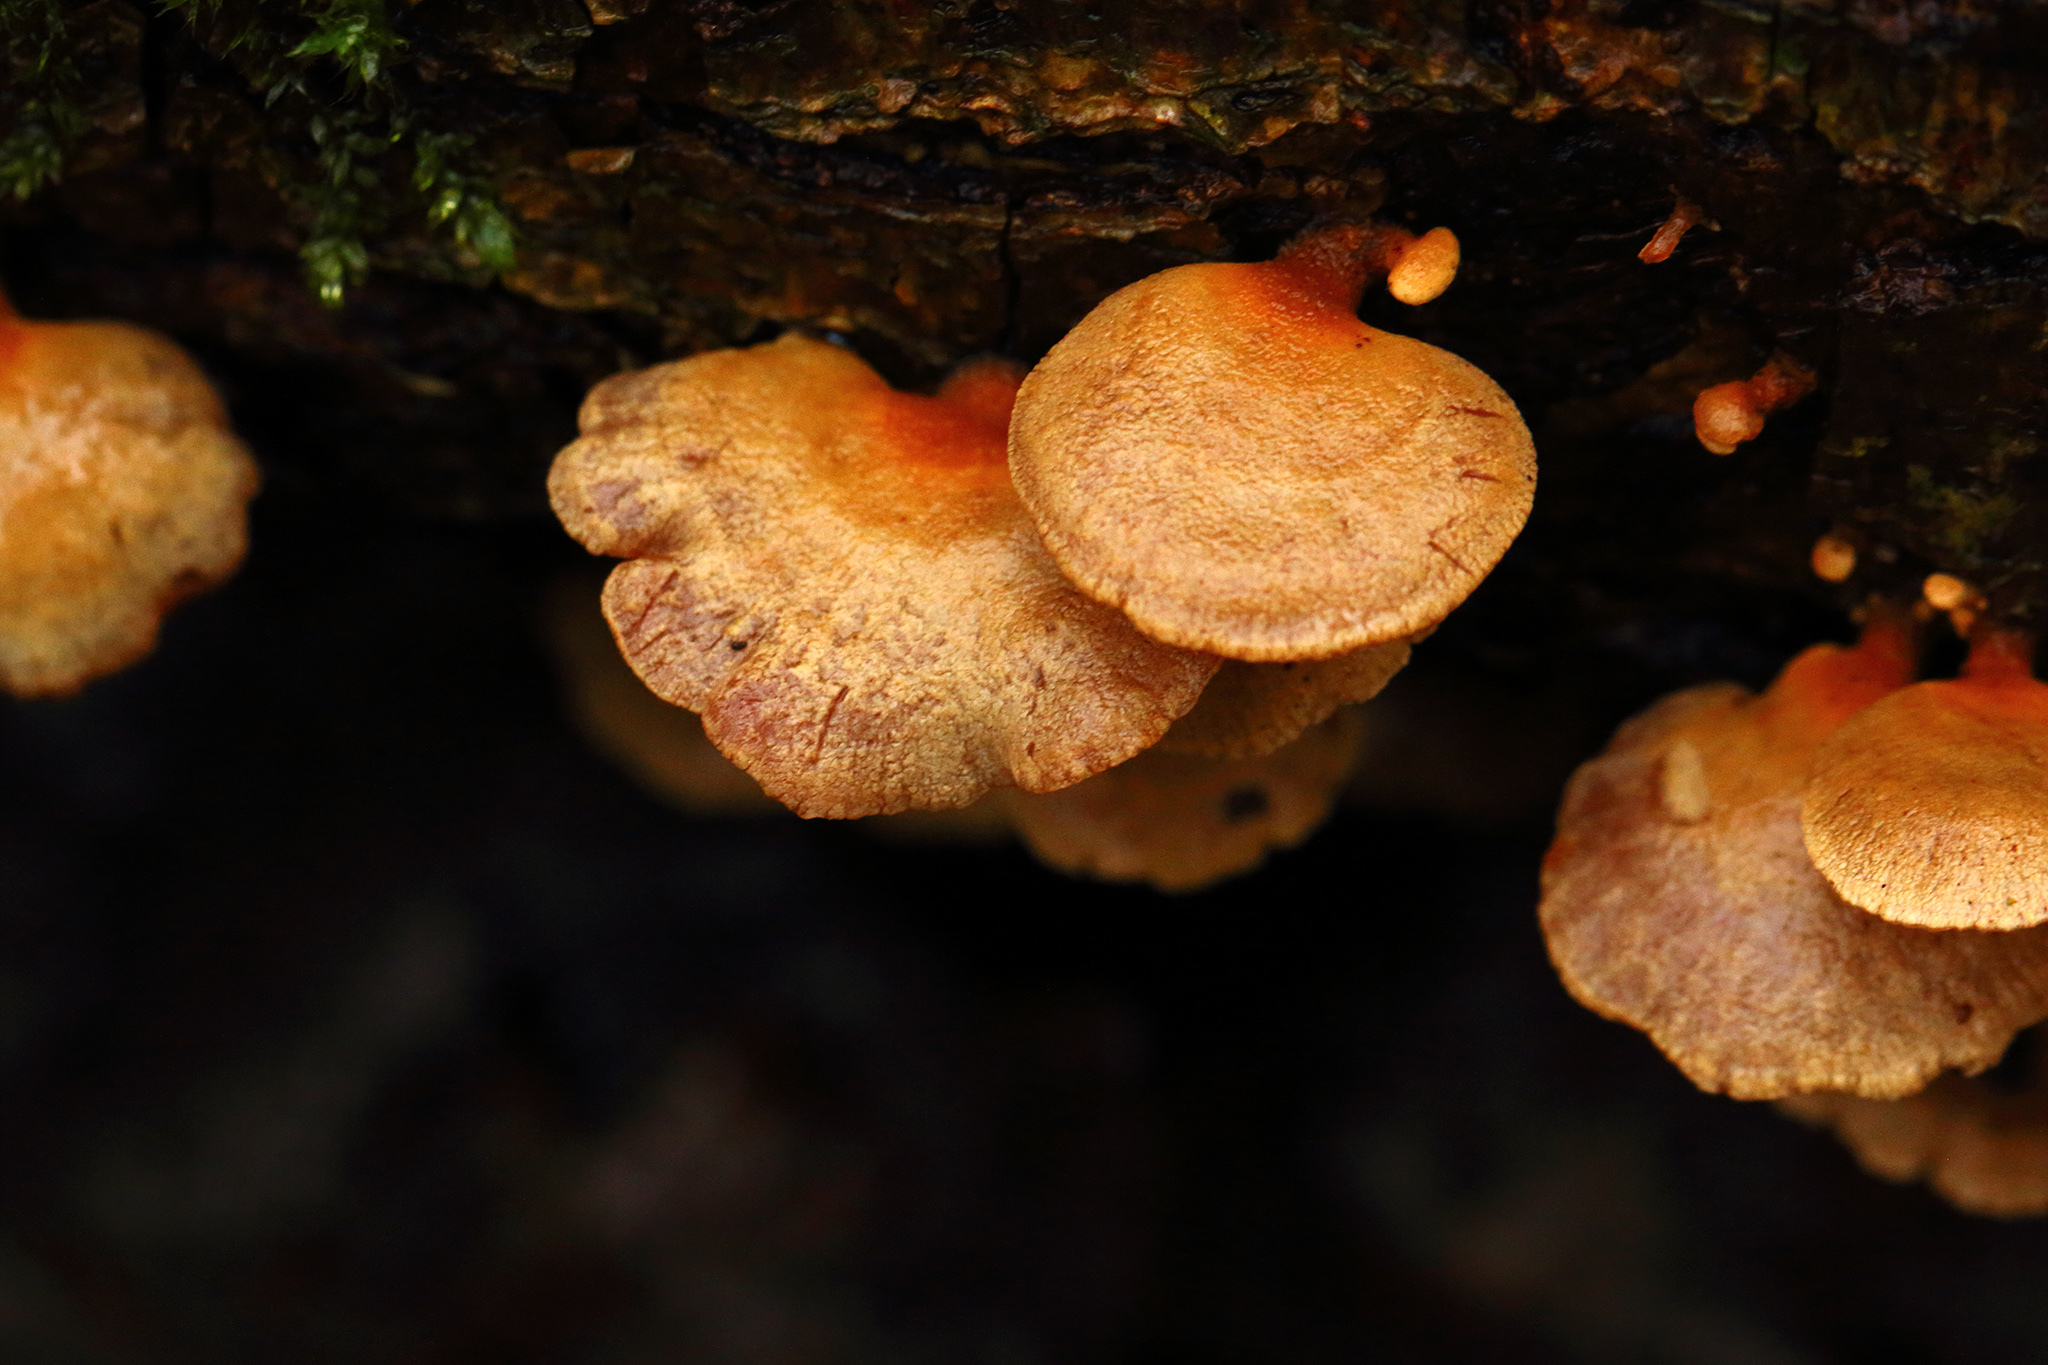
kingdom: Fungi
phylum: Basidiomycota
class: Agaricomycetes
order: Agaricales
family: Mycenaceae
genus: Panellus
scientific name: Panellus stipticus
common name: Bitter oysterling
